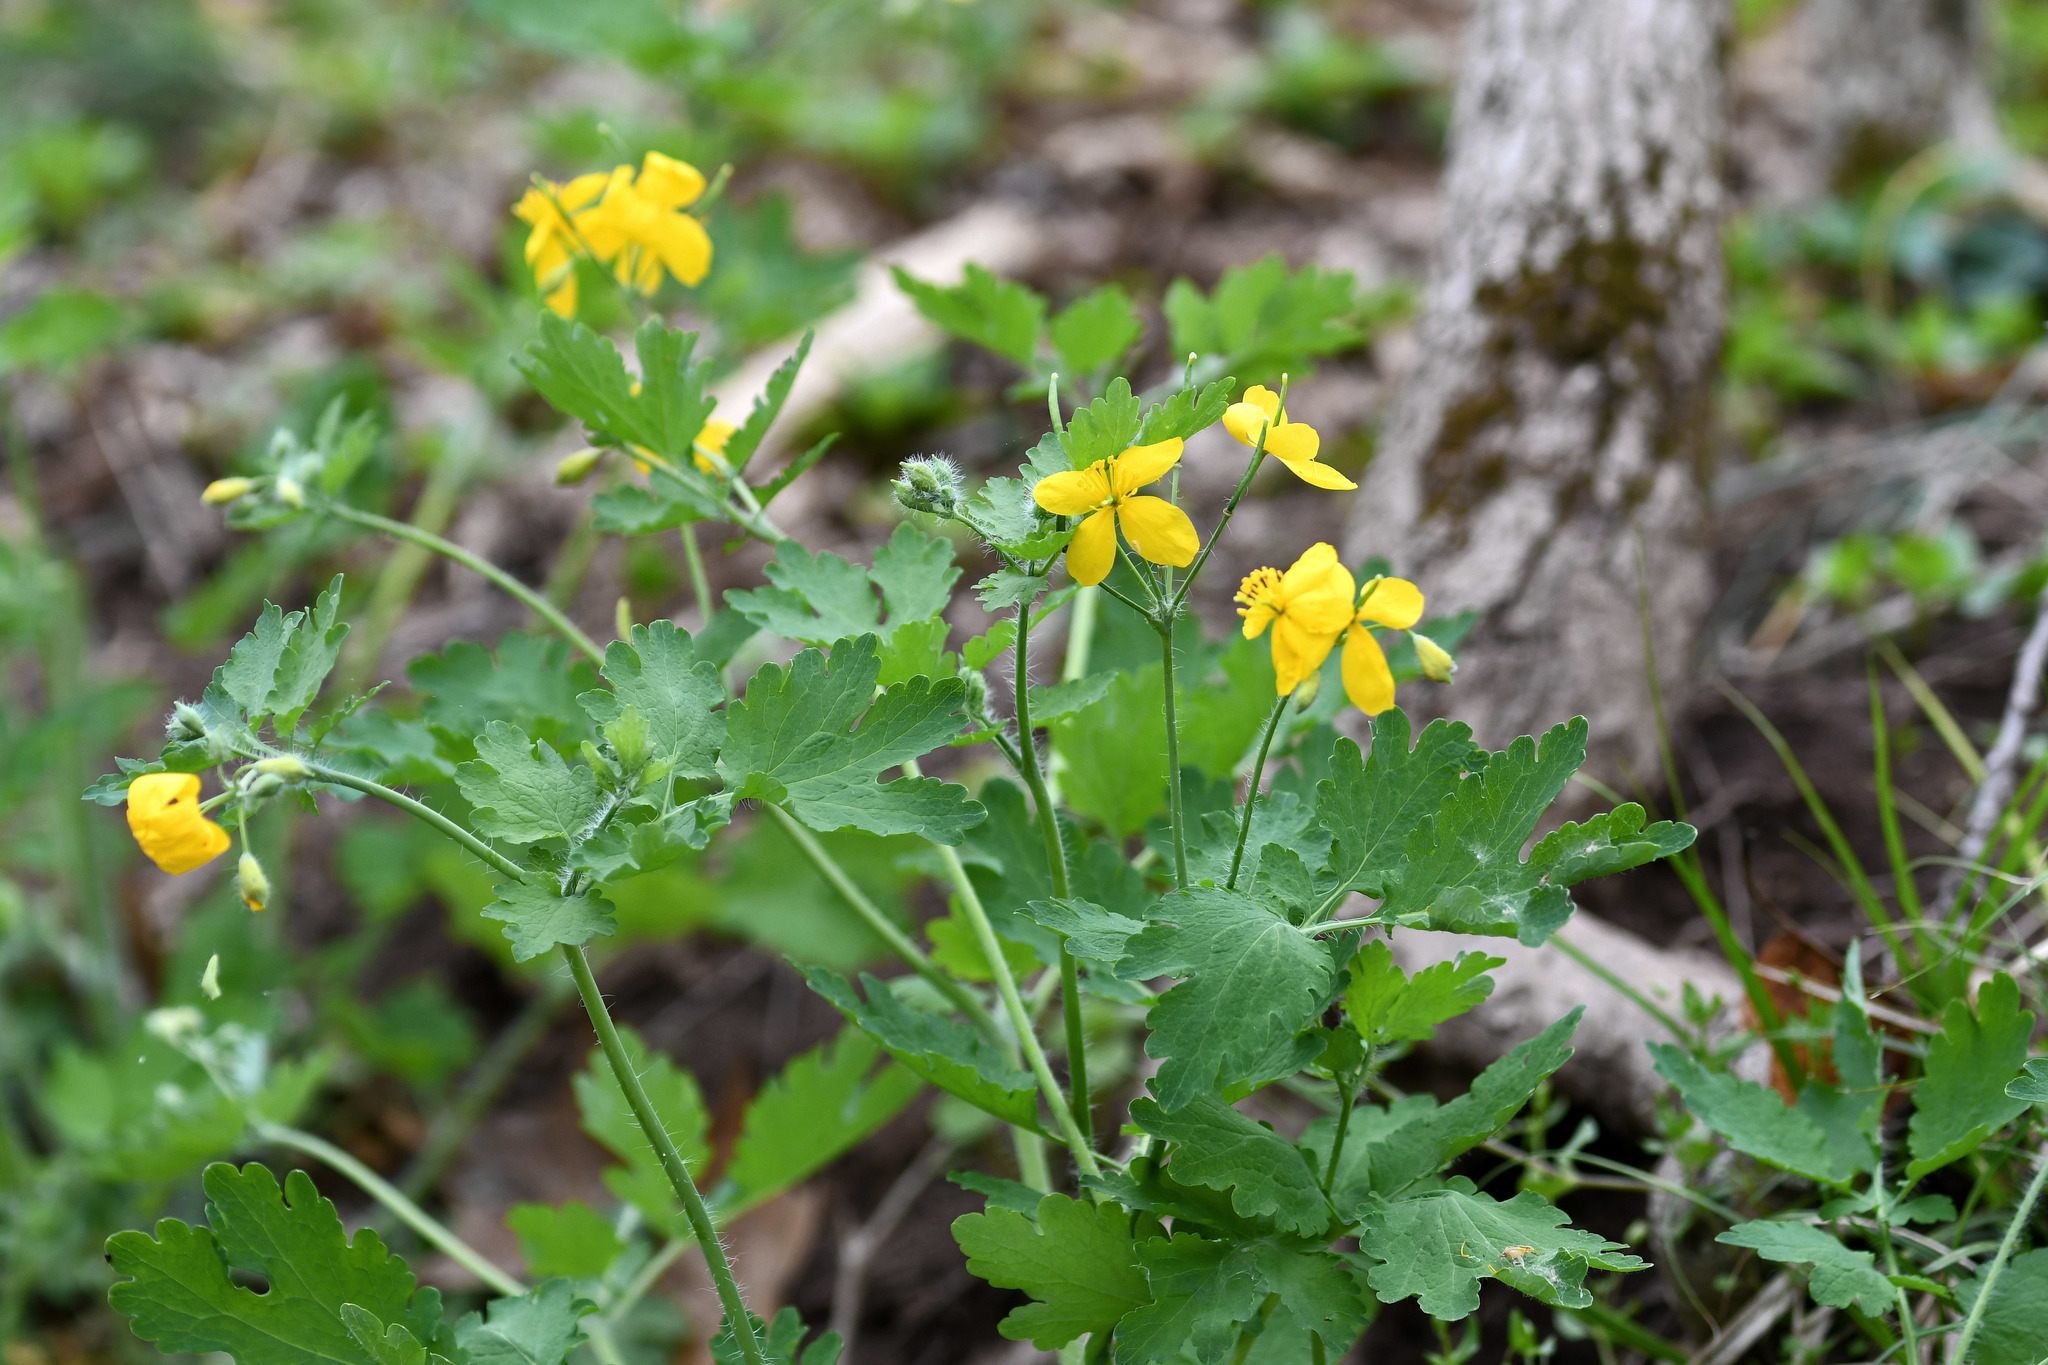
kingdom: Plantae
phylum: Tracheophyta
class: Magnoliopsida
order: Ranunculales
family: Papaveraceae
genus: Chelidonium
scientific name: Chelidonium majus
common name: Greater celandine
